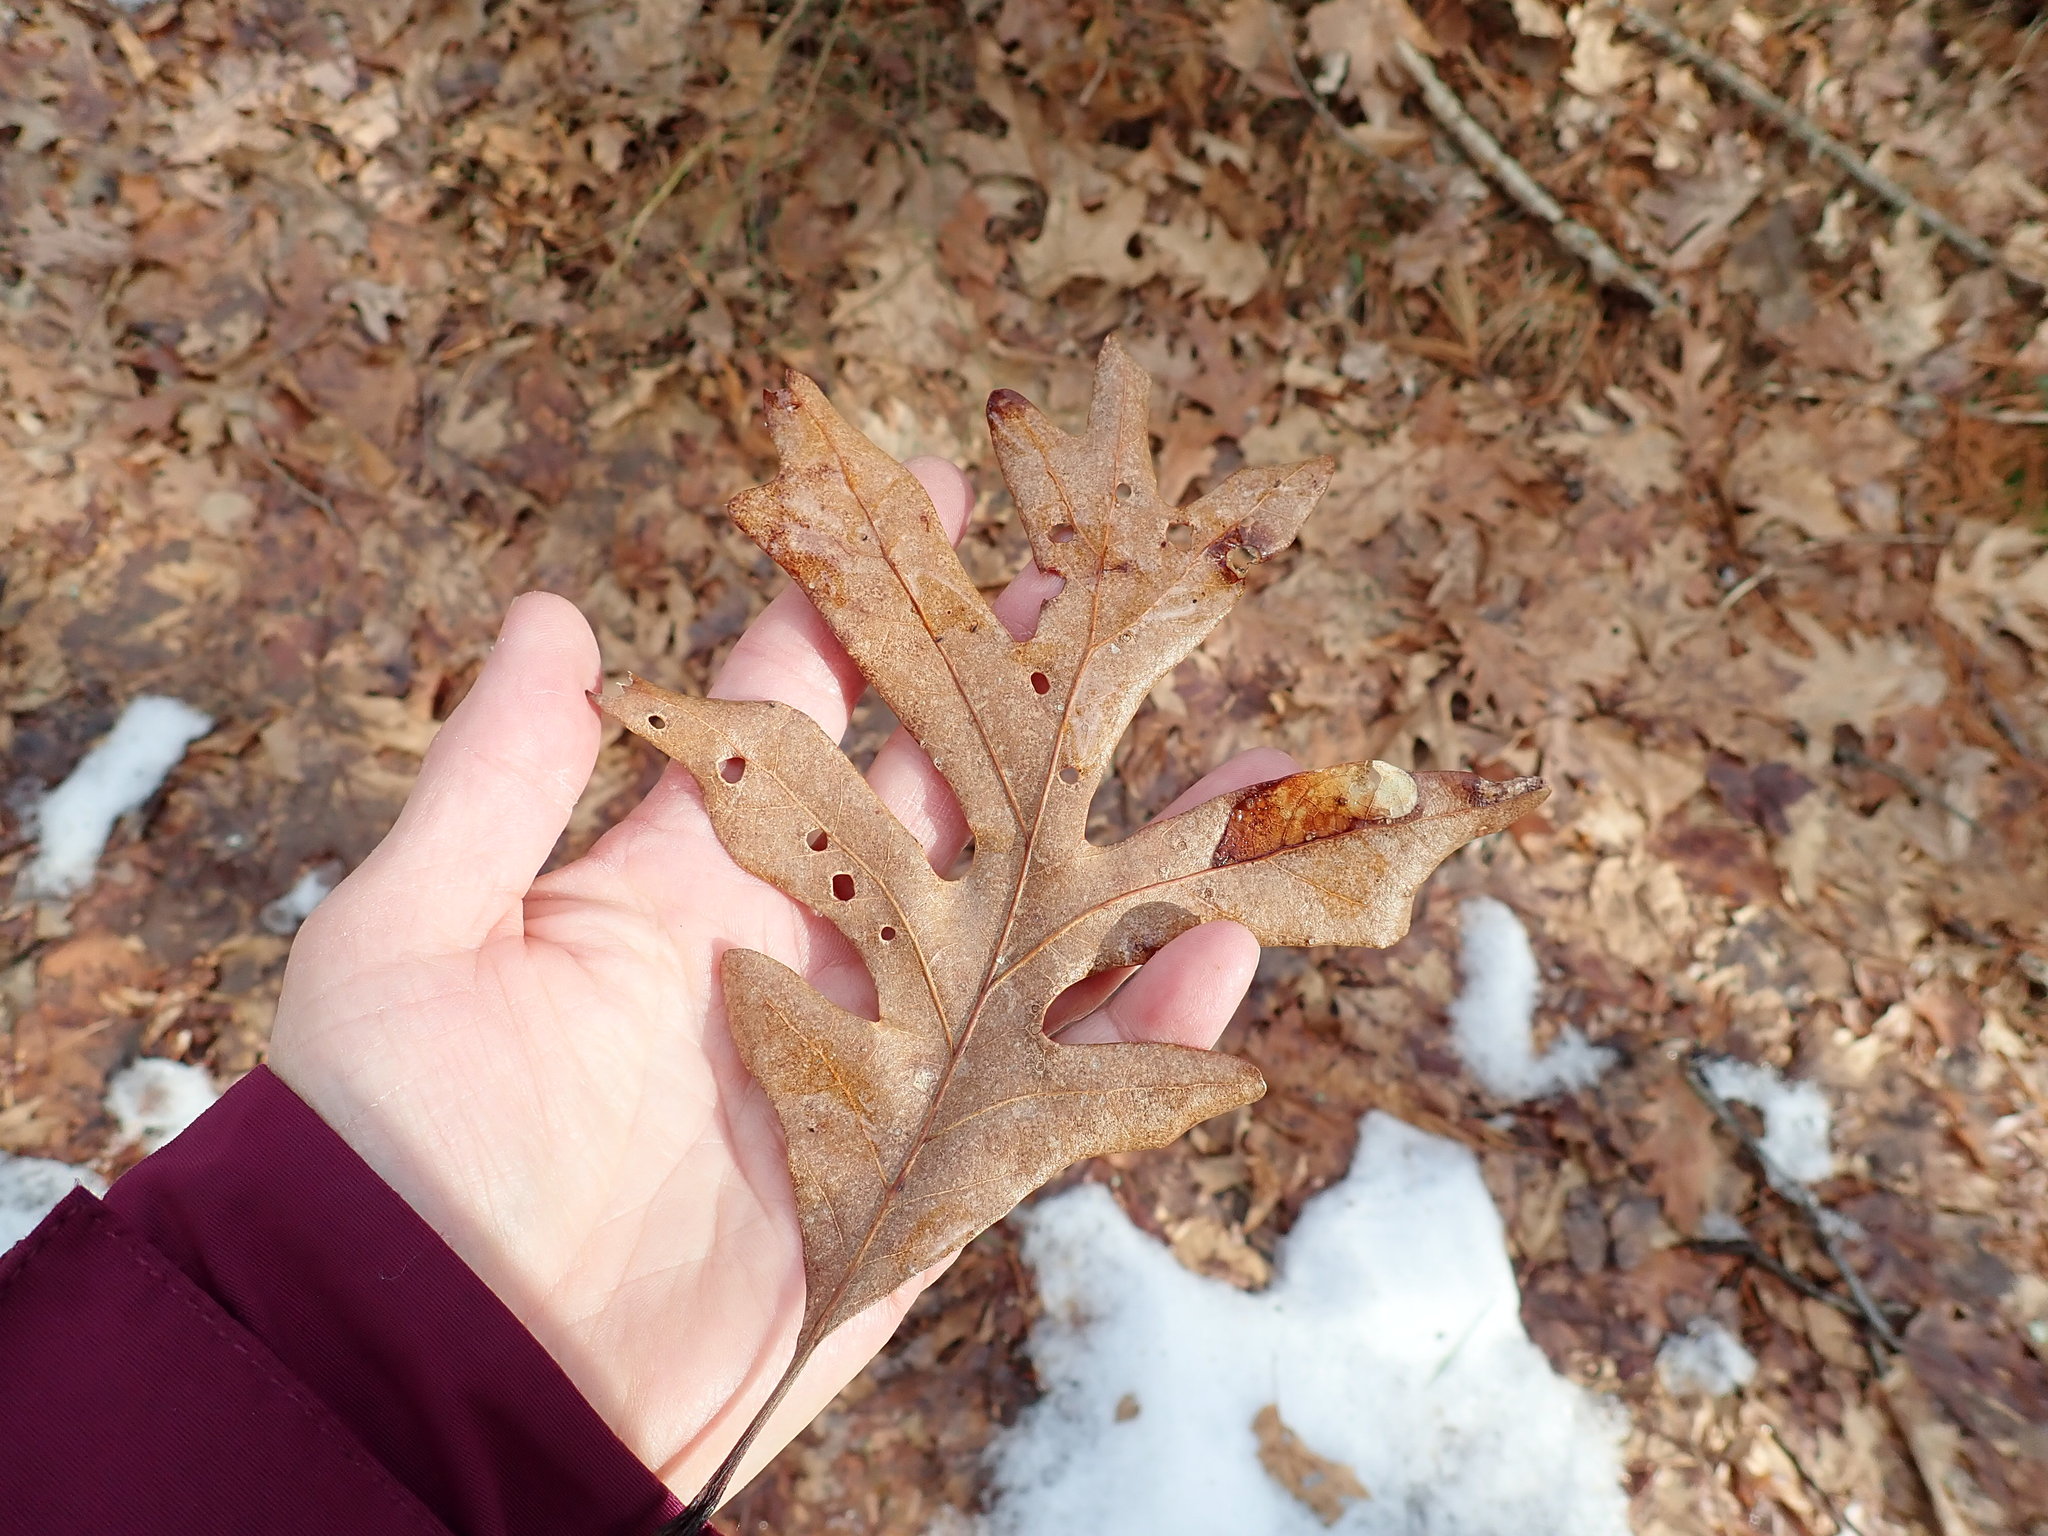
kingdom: Plantae
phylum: Tracheophyta
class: Magnoliopsida
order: Fagales
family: Fagaceae
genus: Quercus
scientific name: Quercus alba
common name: White oak
